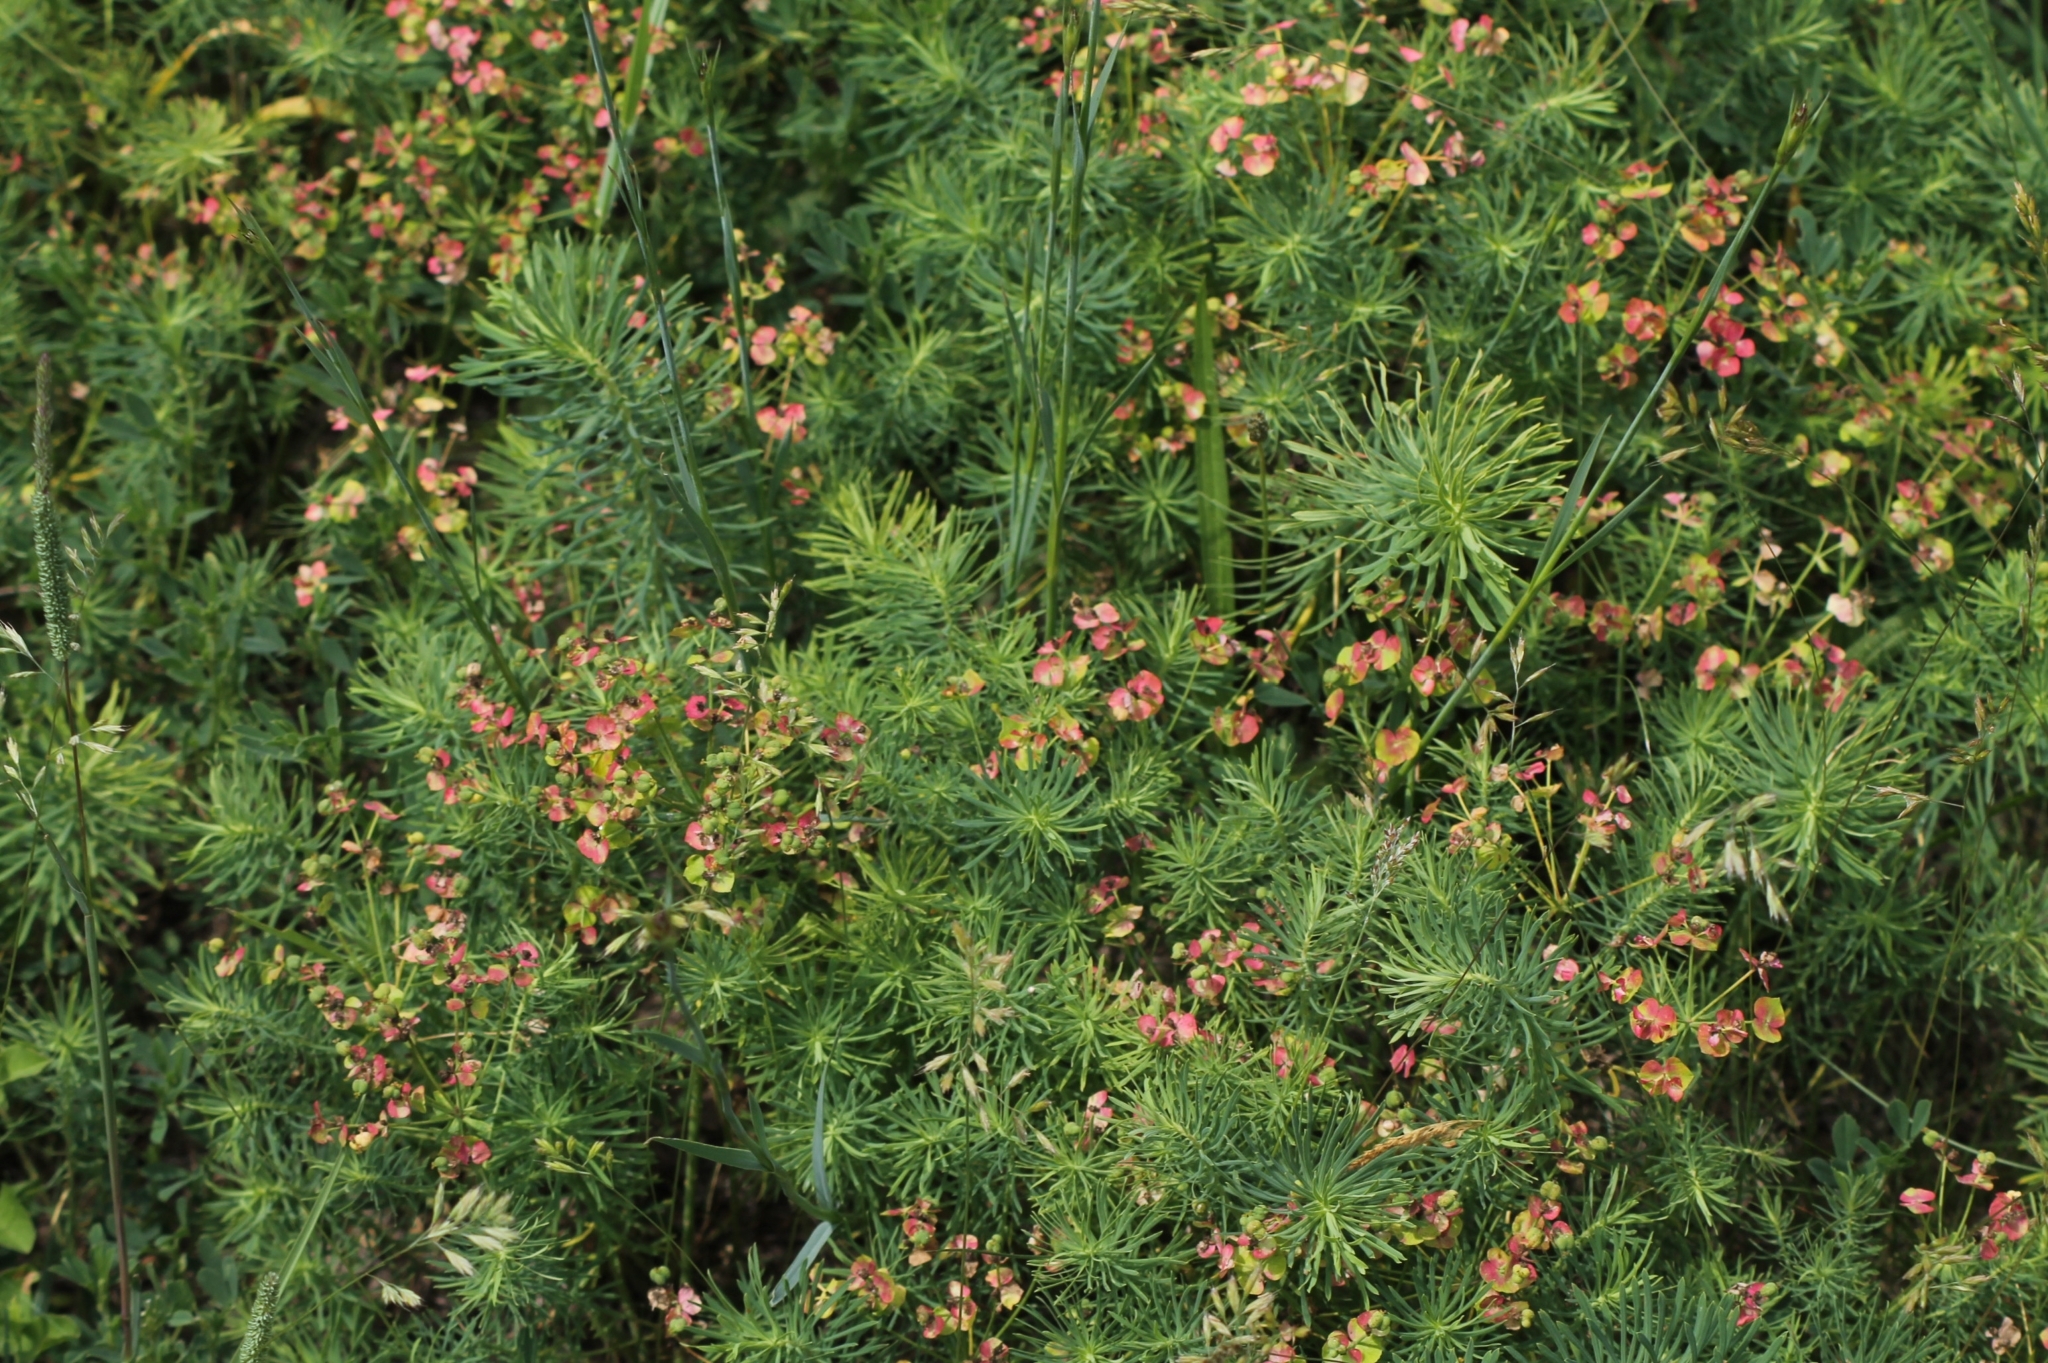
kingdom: Plantae
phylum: Tracheophyta
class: Magnoliopsida
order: Malpighiales
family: Euphorbiaceae
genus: Euphorbia
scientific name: Euphorbia cyparissias
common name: Cypress spurge
